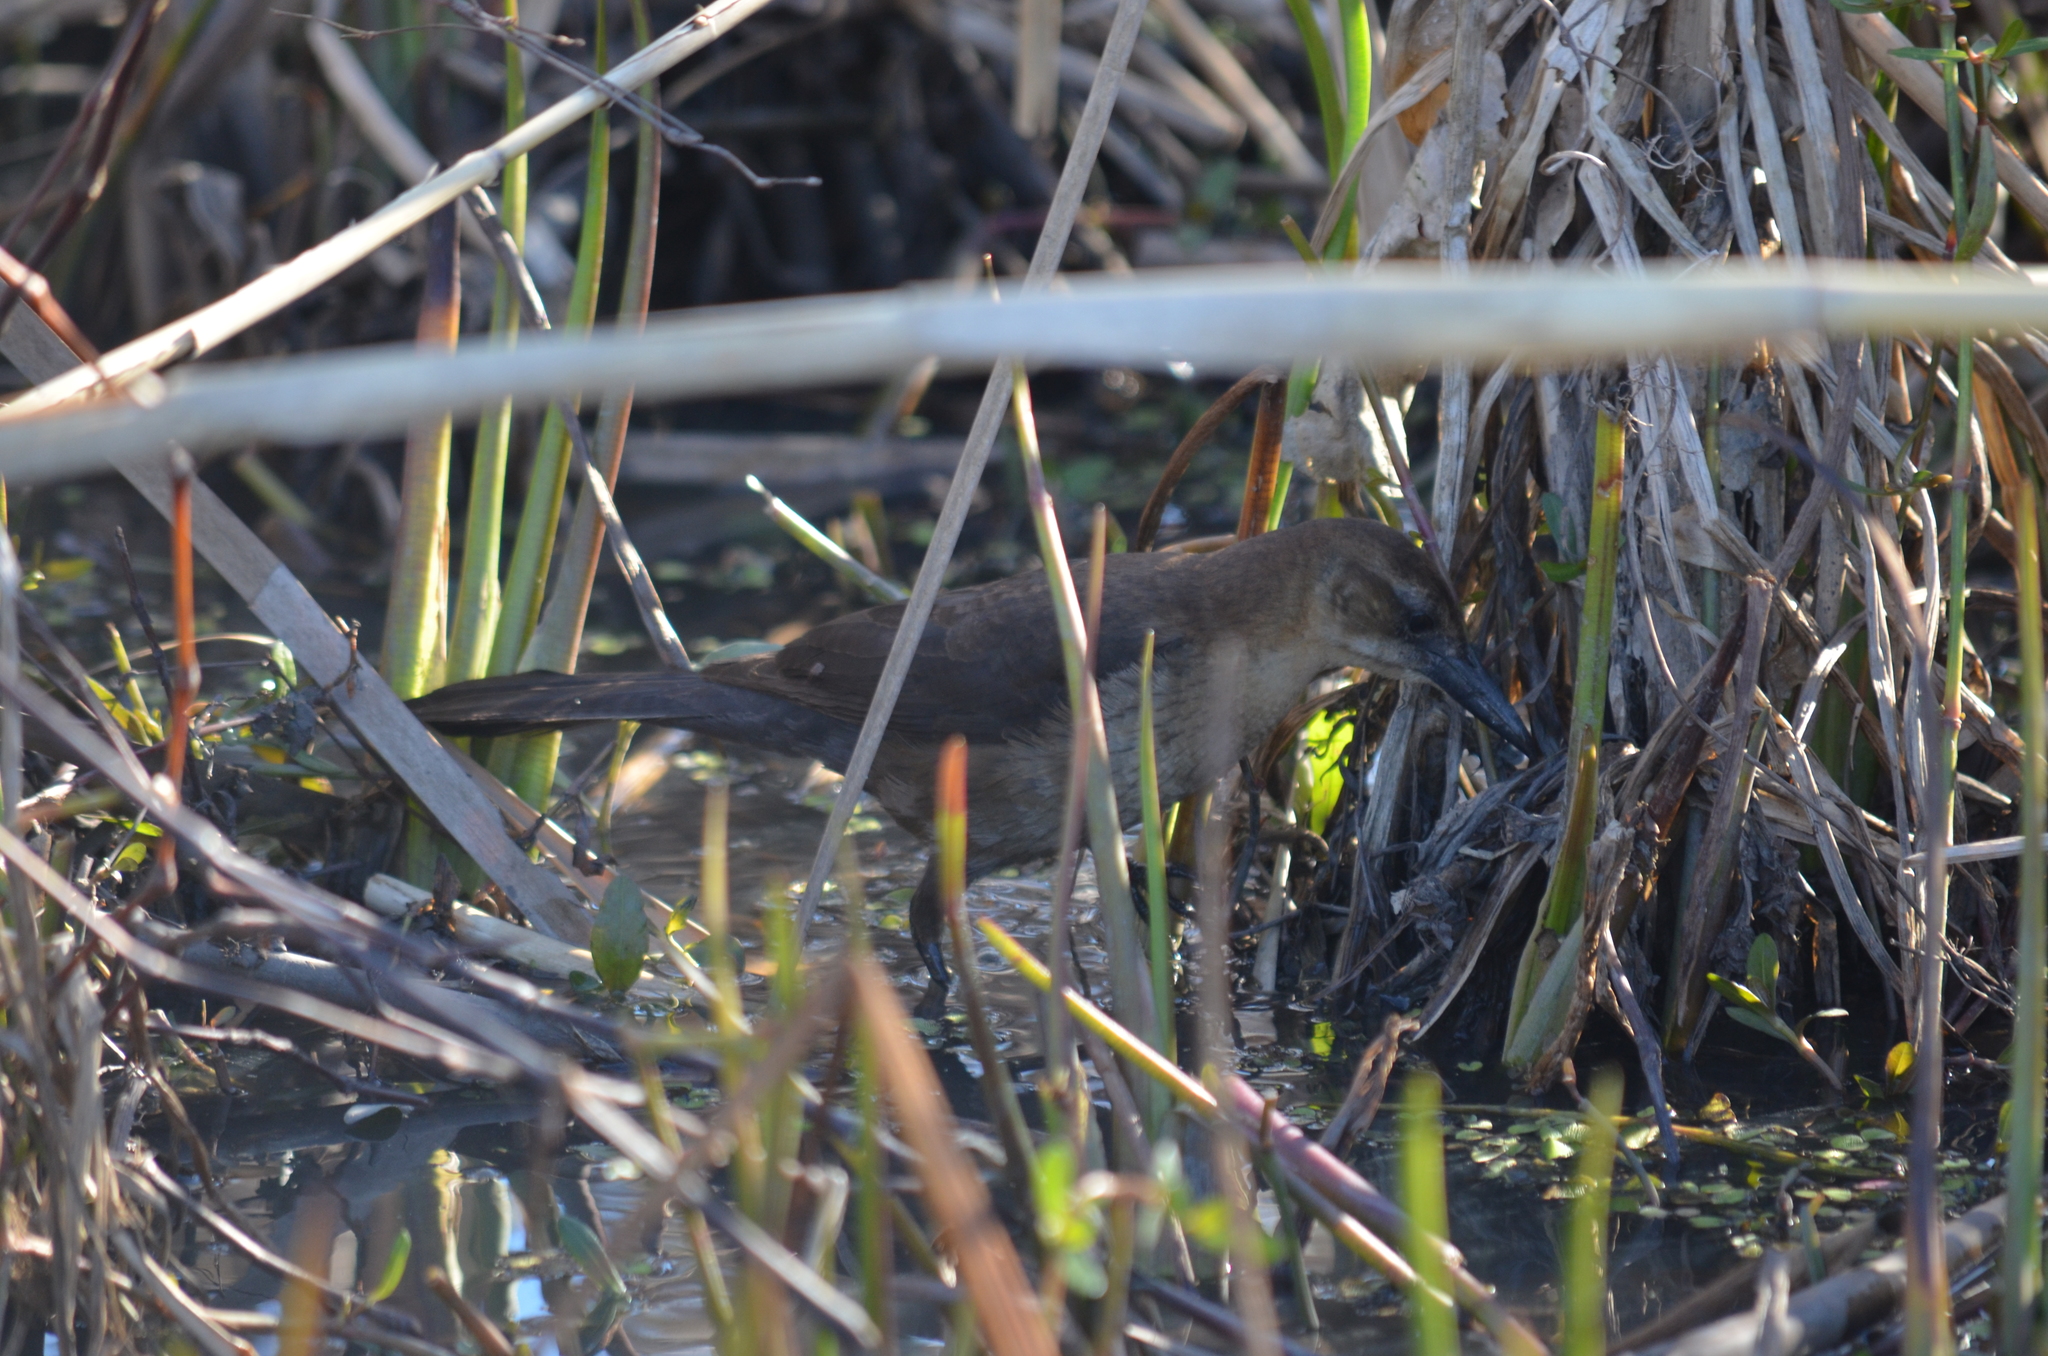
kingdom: Animalia
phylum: Chordata
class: Aves
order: Passeriformes
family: Icteridae
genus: Quiscalus
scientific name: Quiscalus major
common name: Boat-tailed grackle
